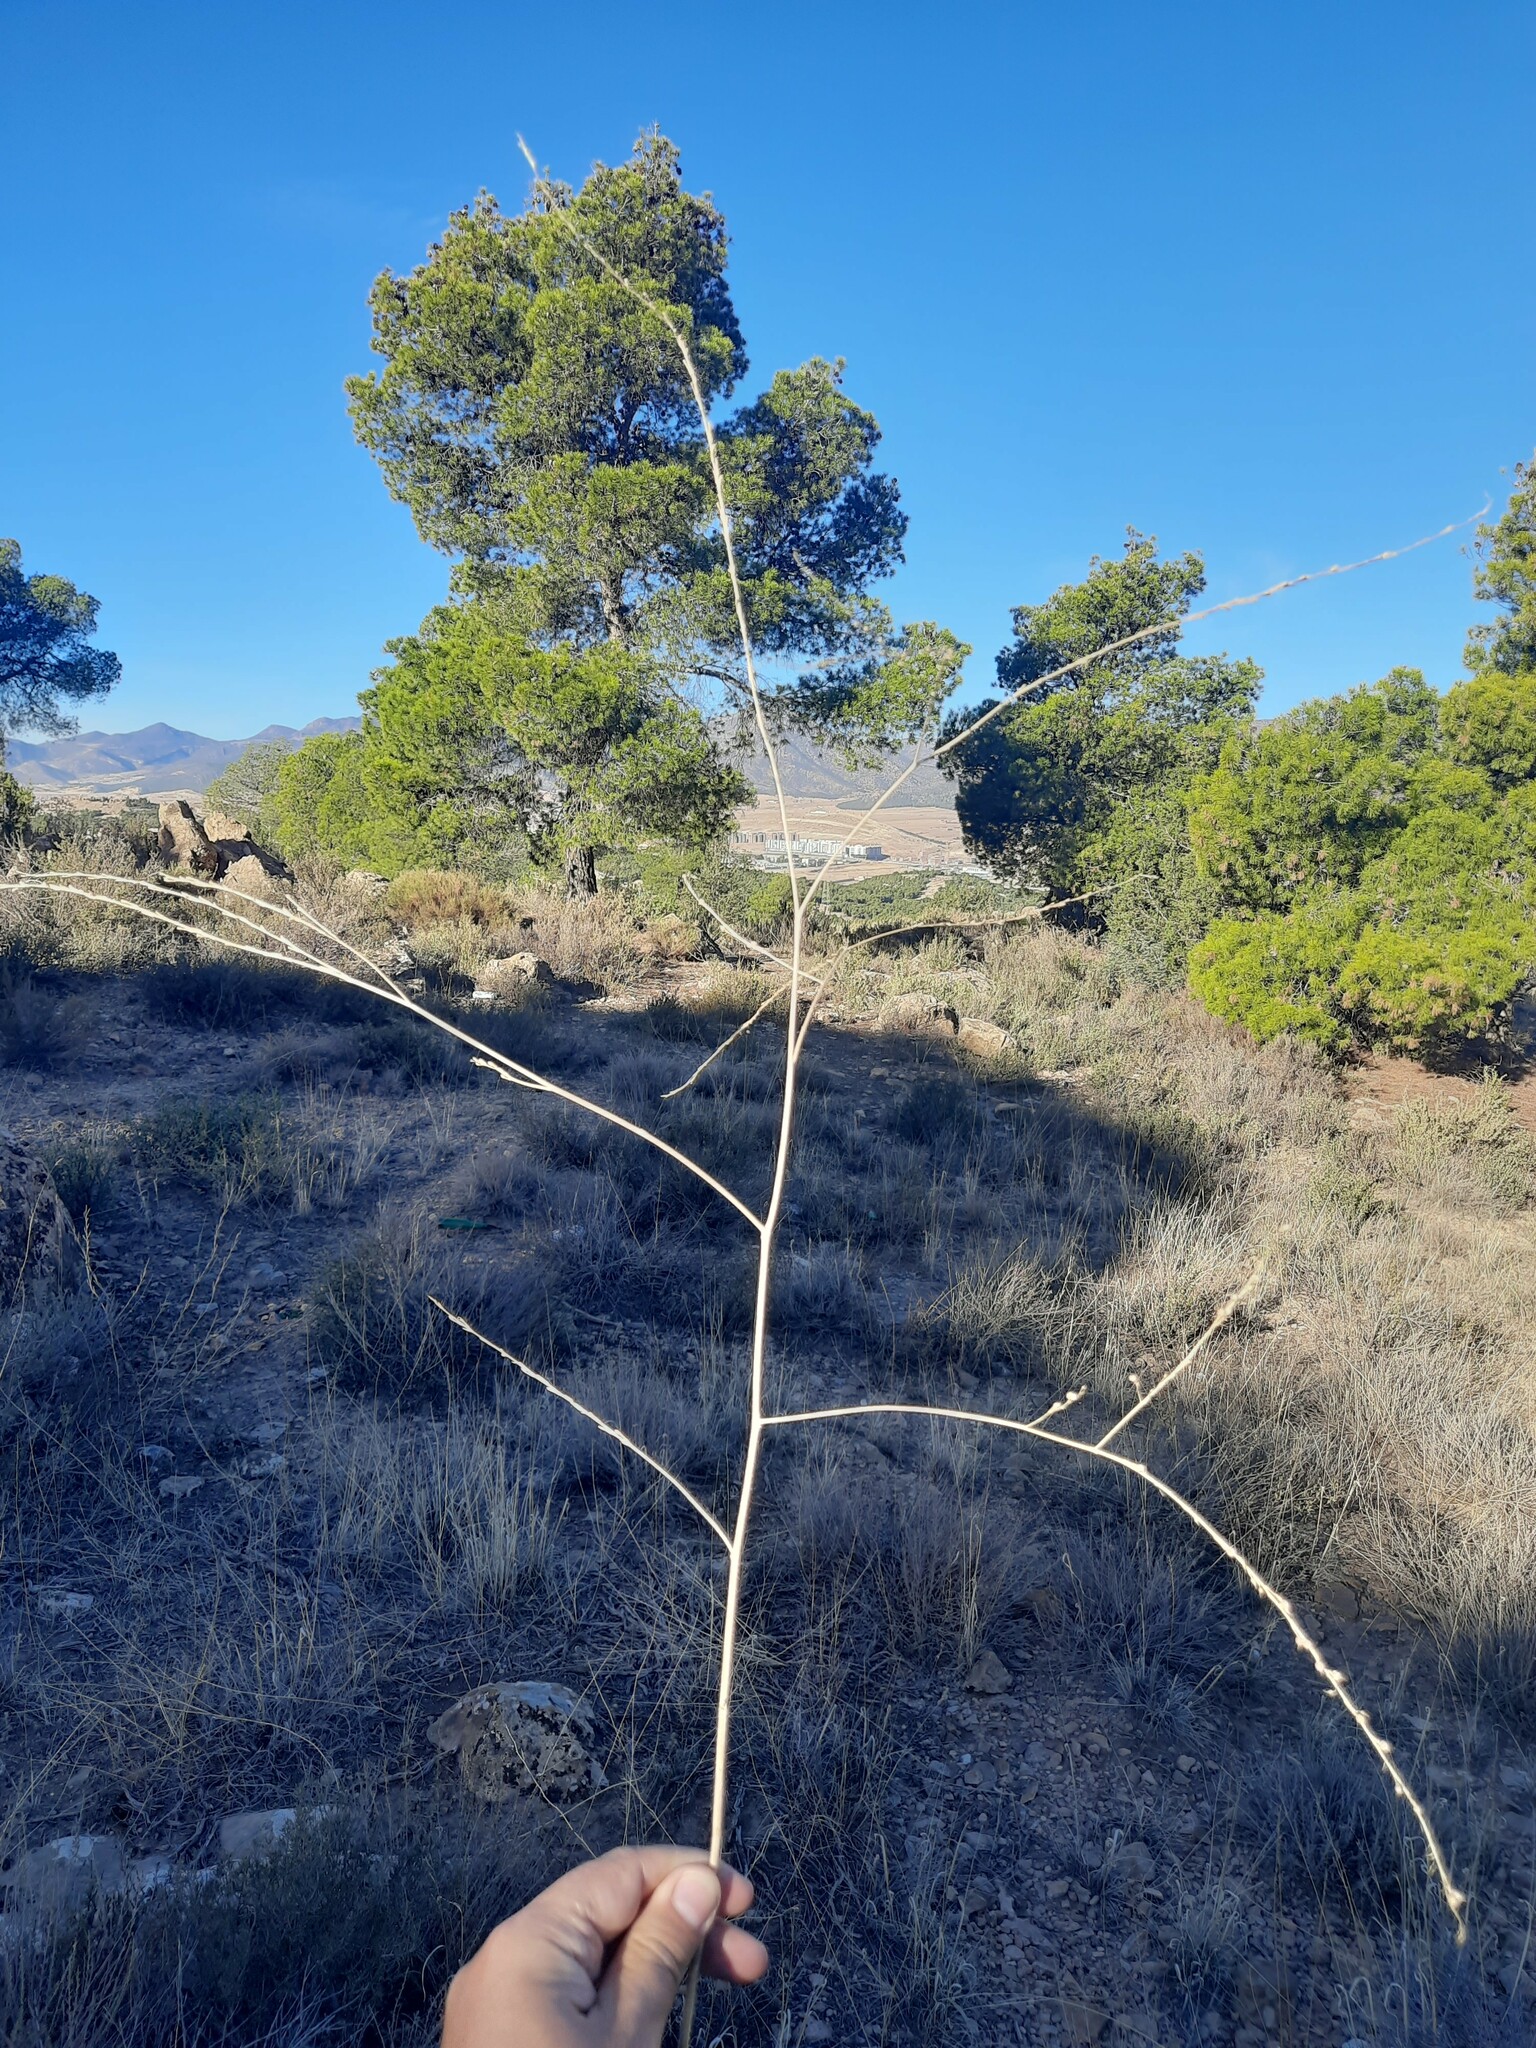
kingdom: Plantae
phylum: Tracheophyta
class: Magnoliopsida
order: Brassicales
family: Brassicaceae
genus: Rapistrum
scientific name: Rapistrum rugosum
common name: Annual bastardcabbage
